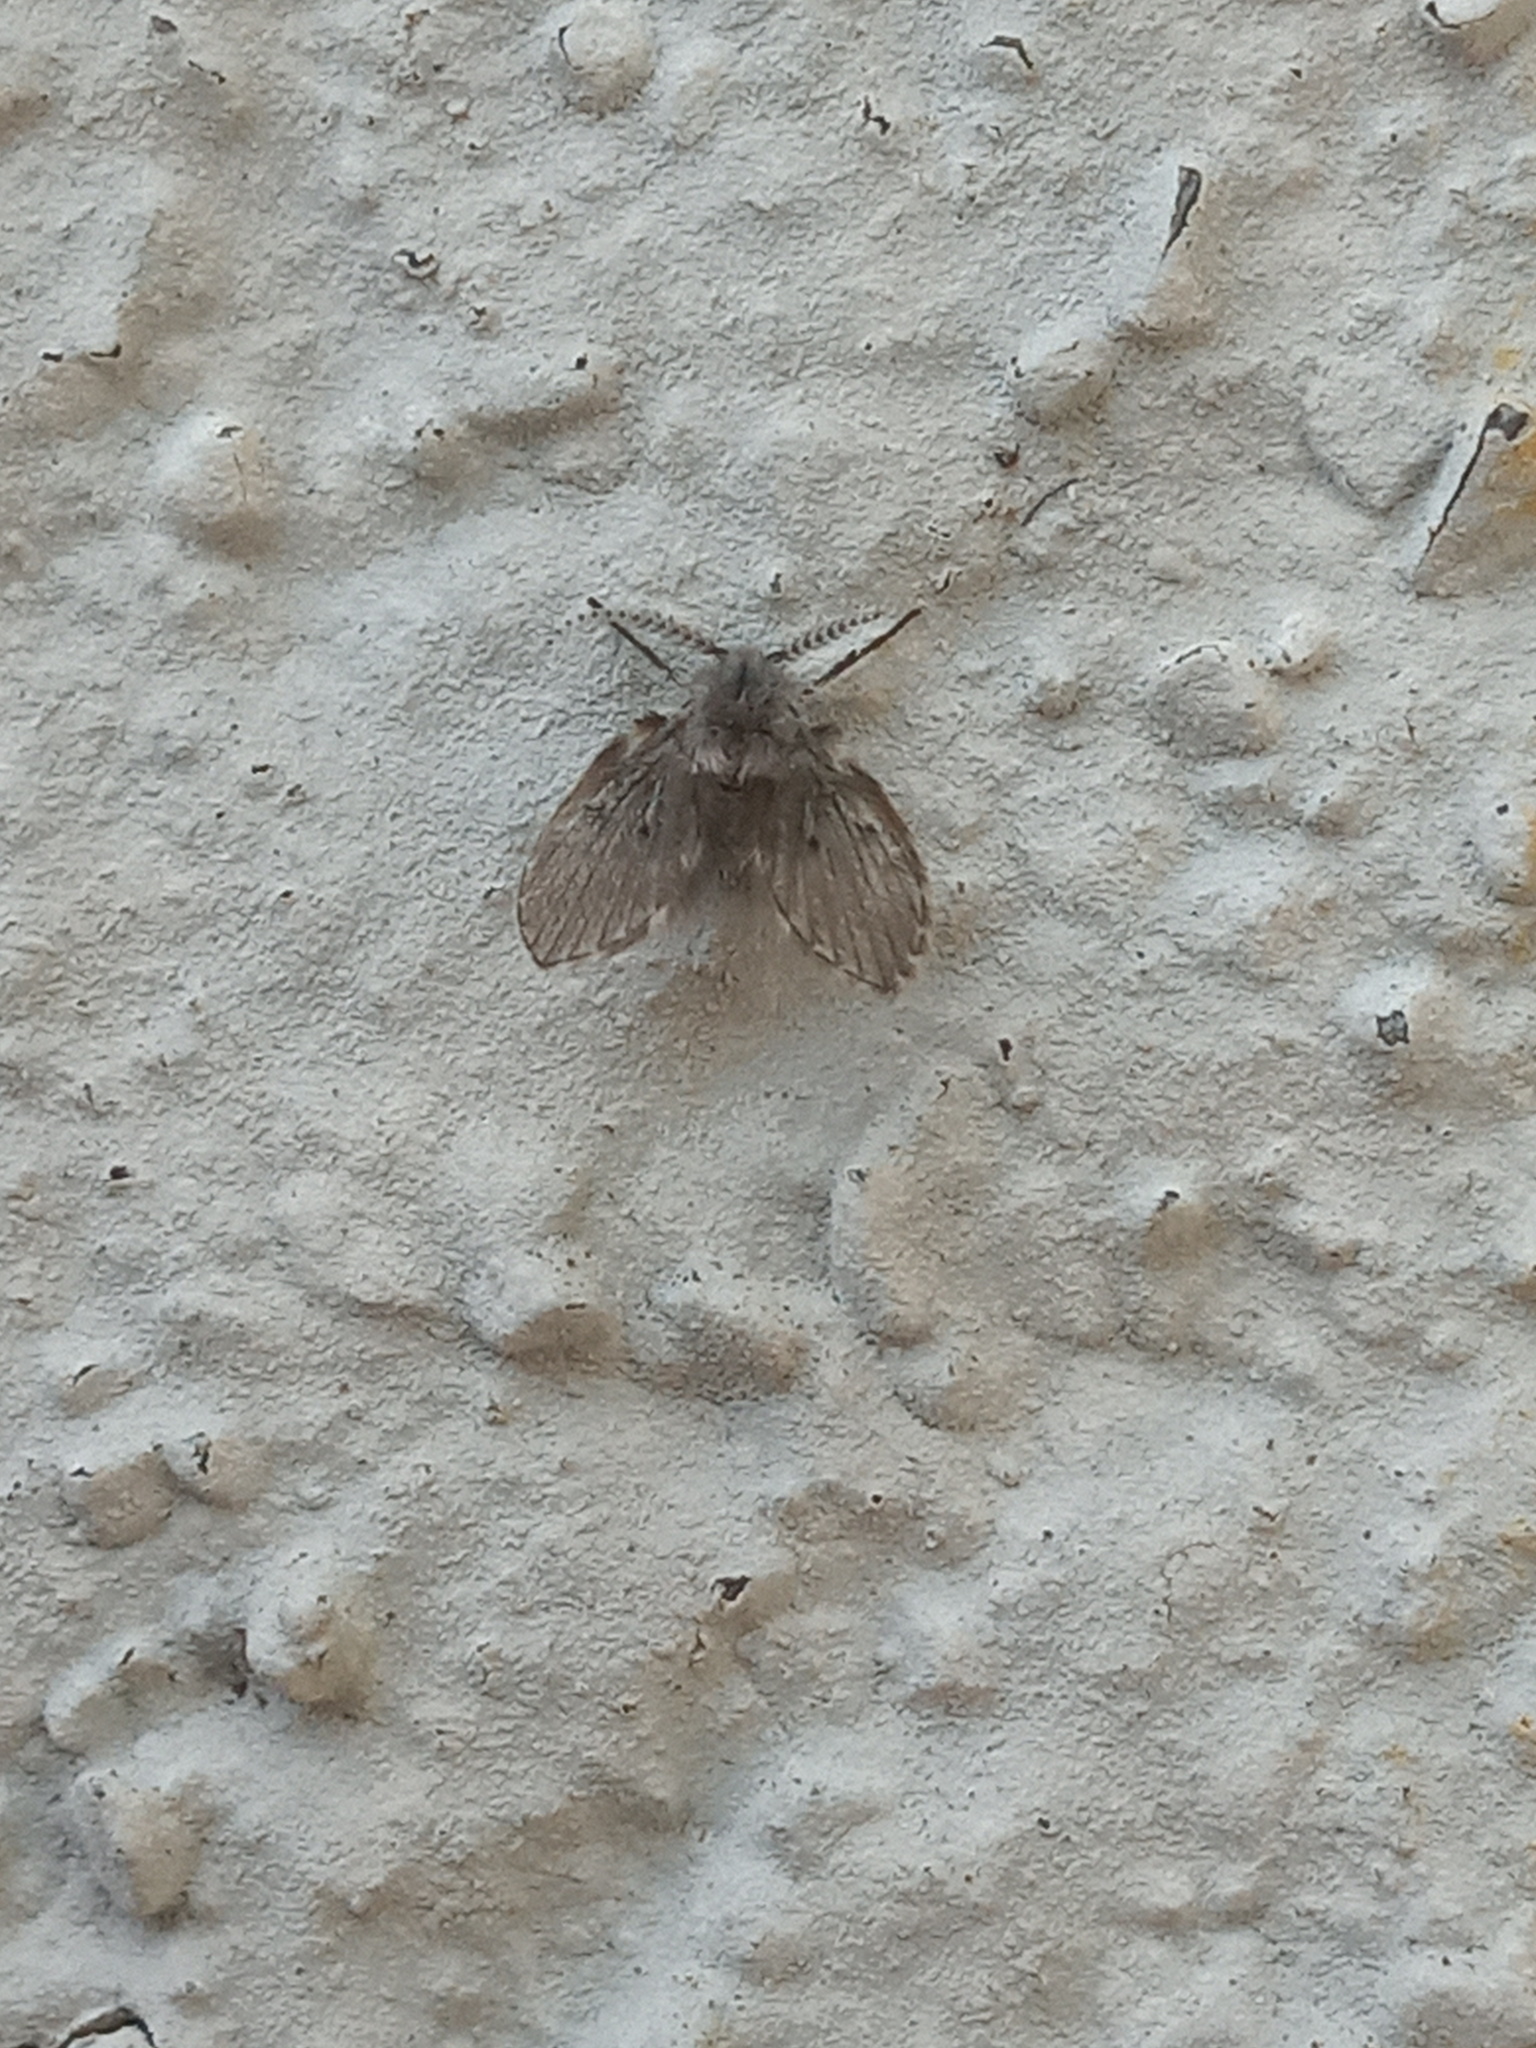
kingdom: Animalia
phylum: Arthropoda
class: Insecta
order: Diptera
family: Psychodidae
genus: Clogmia
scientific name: Clogmia albipunctatus
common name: White-spotted moth fly
